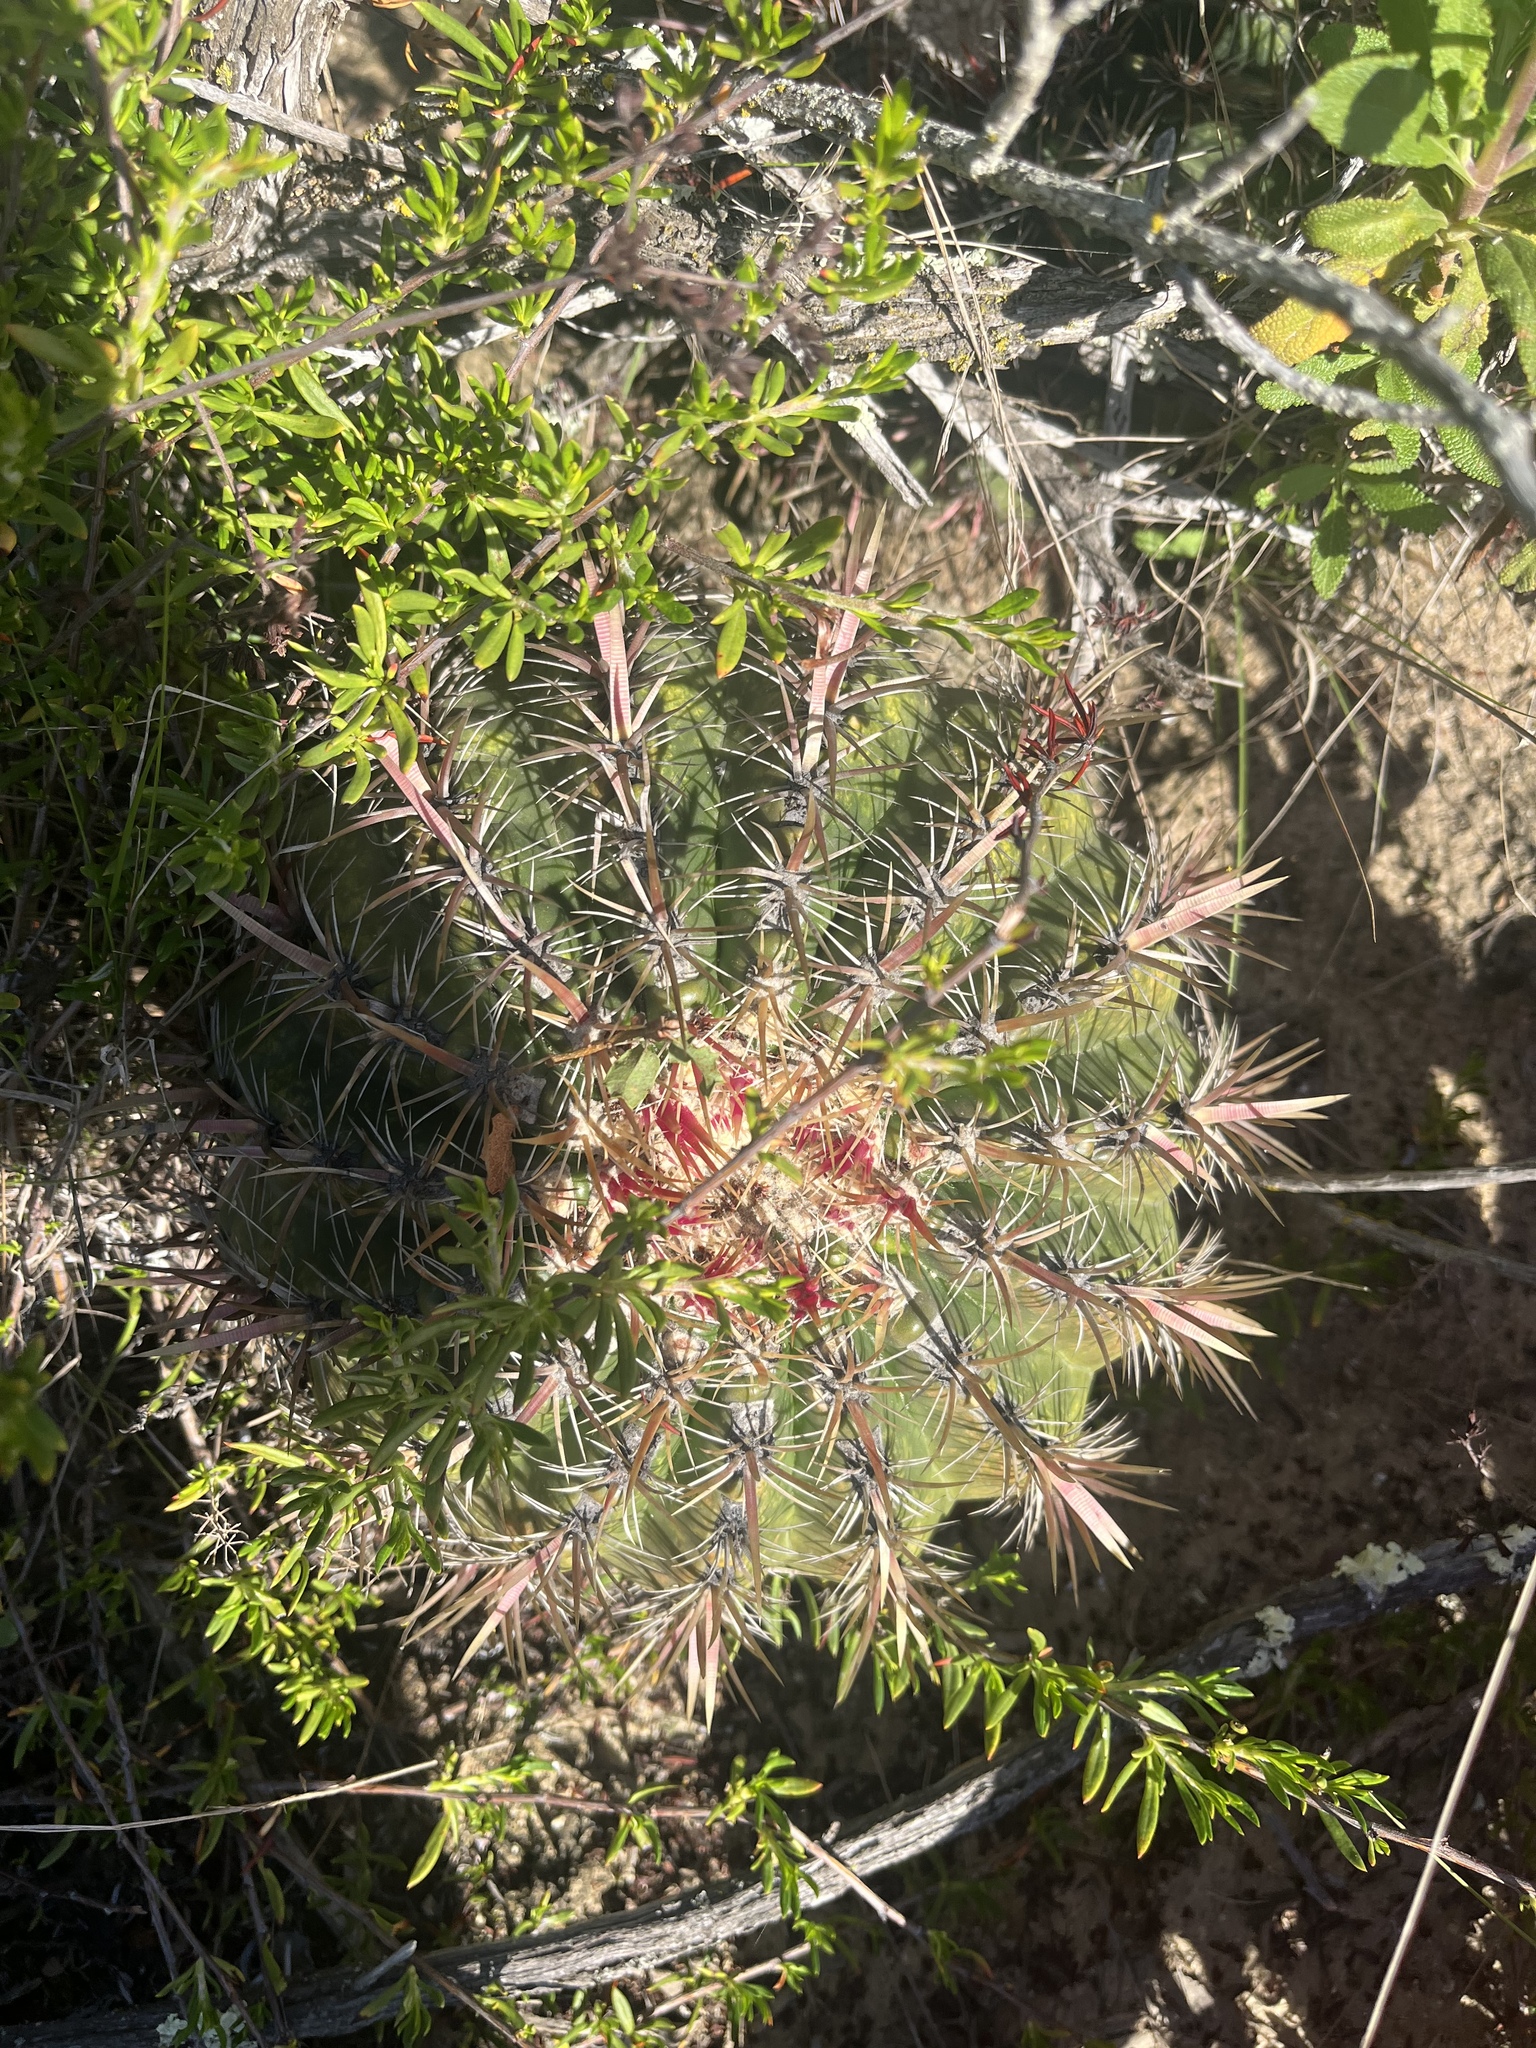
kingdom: Plantae
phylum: Tracheophyta
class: Magnoliopsida
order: Caryophyllales
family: Cactaceae
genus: Ferocactus
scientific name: Ferocactus viridescens
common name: San diego barrel cactus
